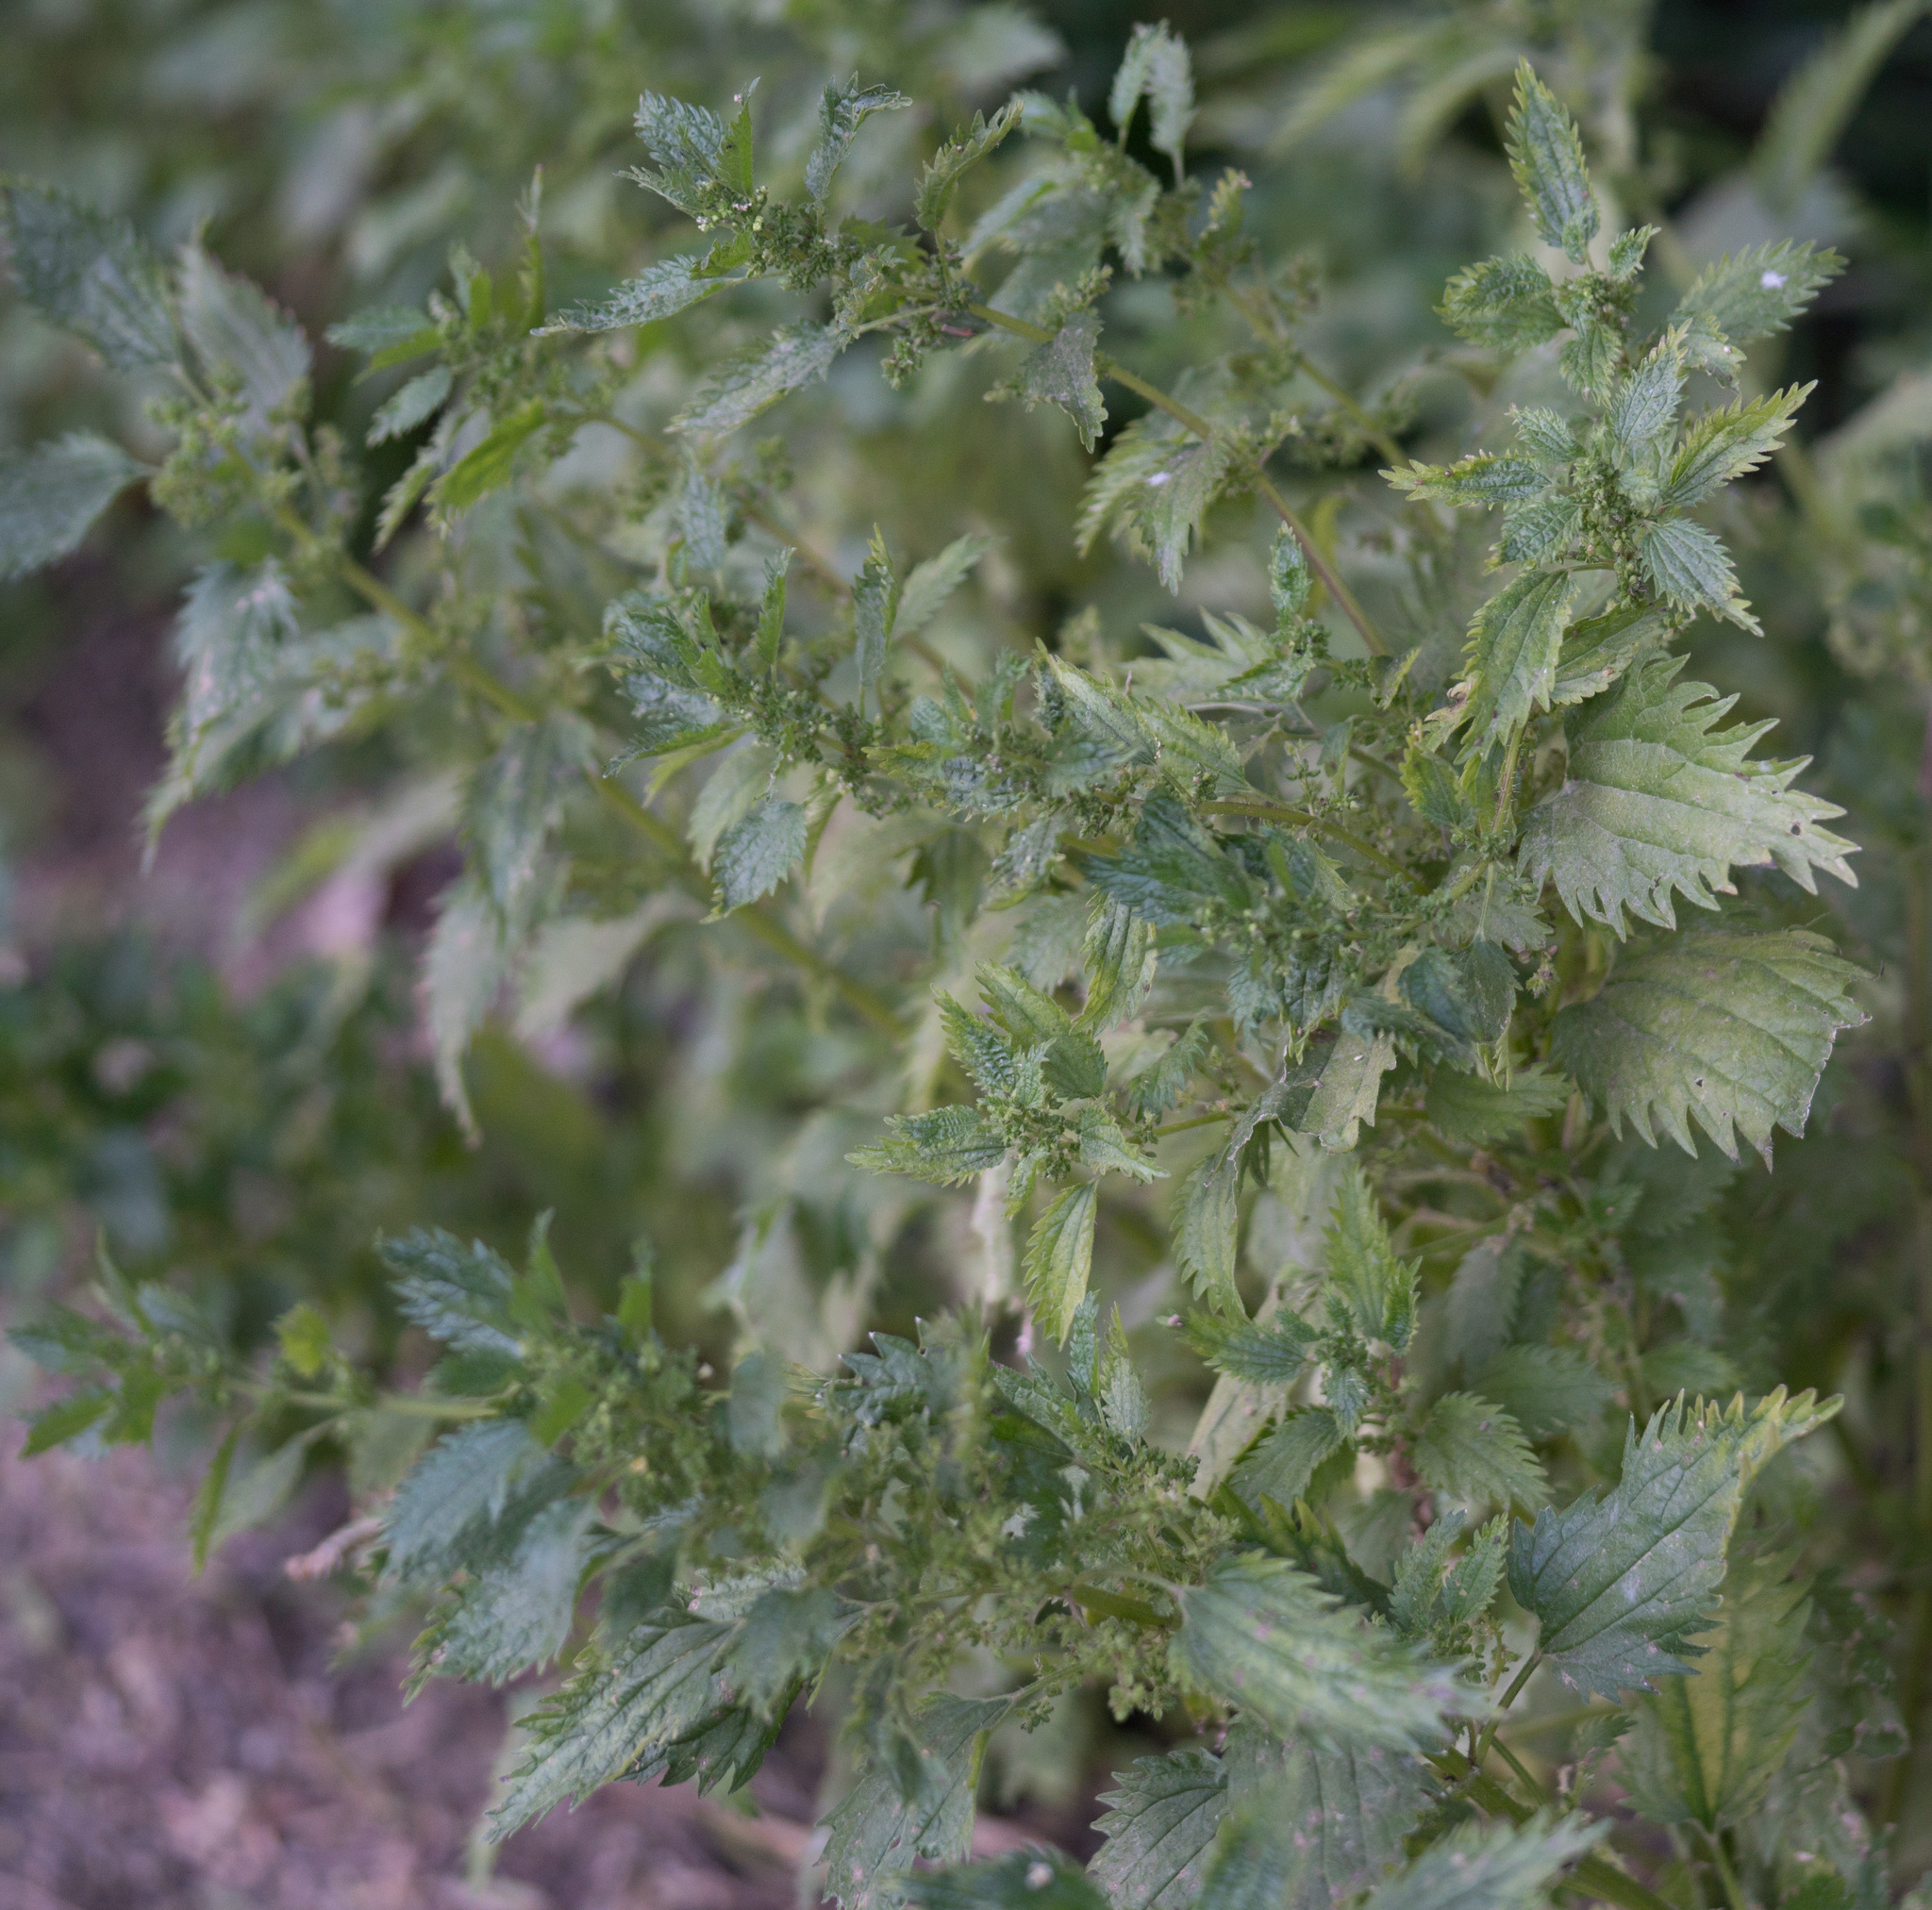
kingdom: Plantae
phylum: Tracheophyta
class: Magnoliopsida
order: Rosales
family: Urticaceae
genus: Urtica
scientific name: Urtica urens
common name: Dwarf nettle
